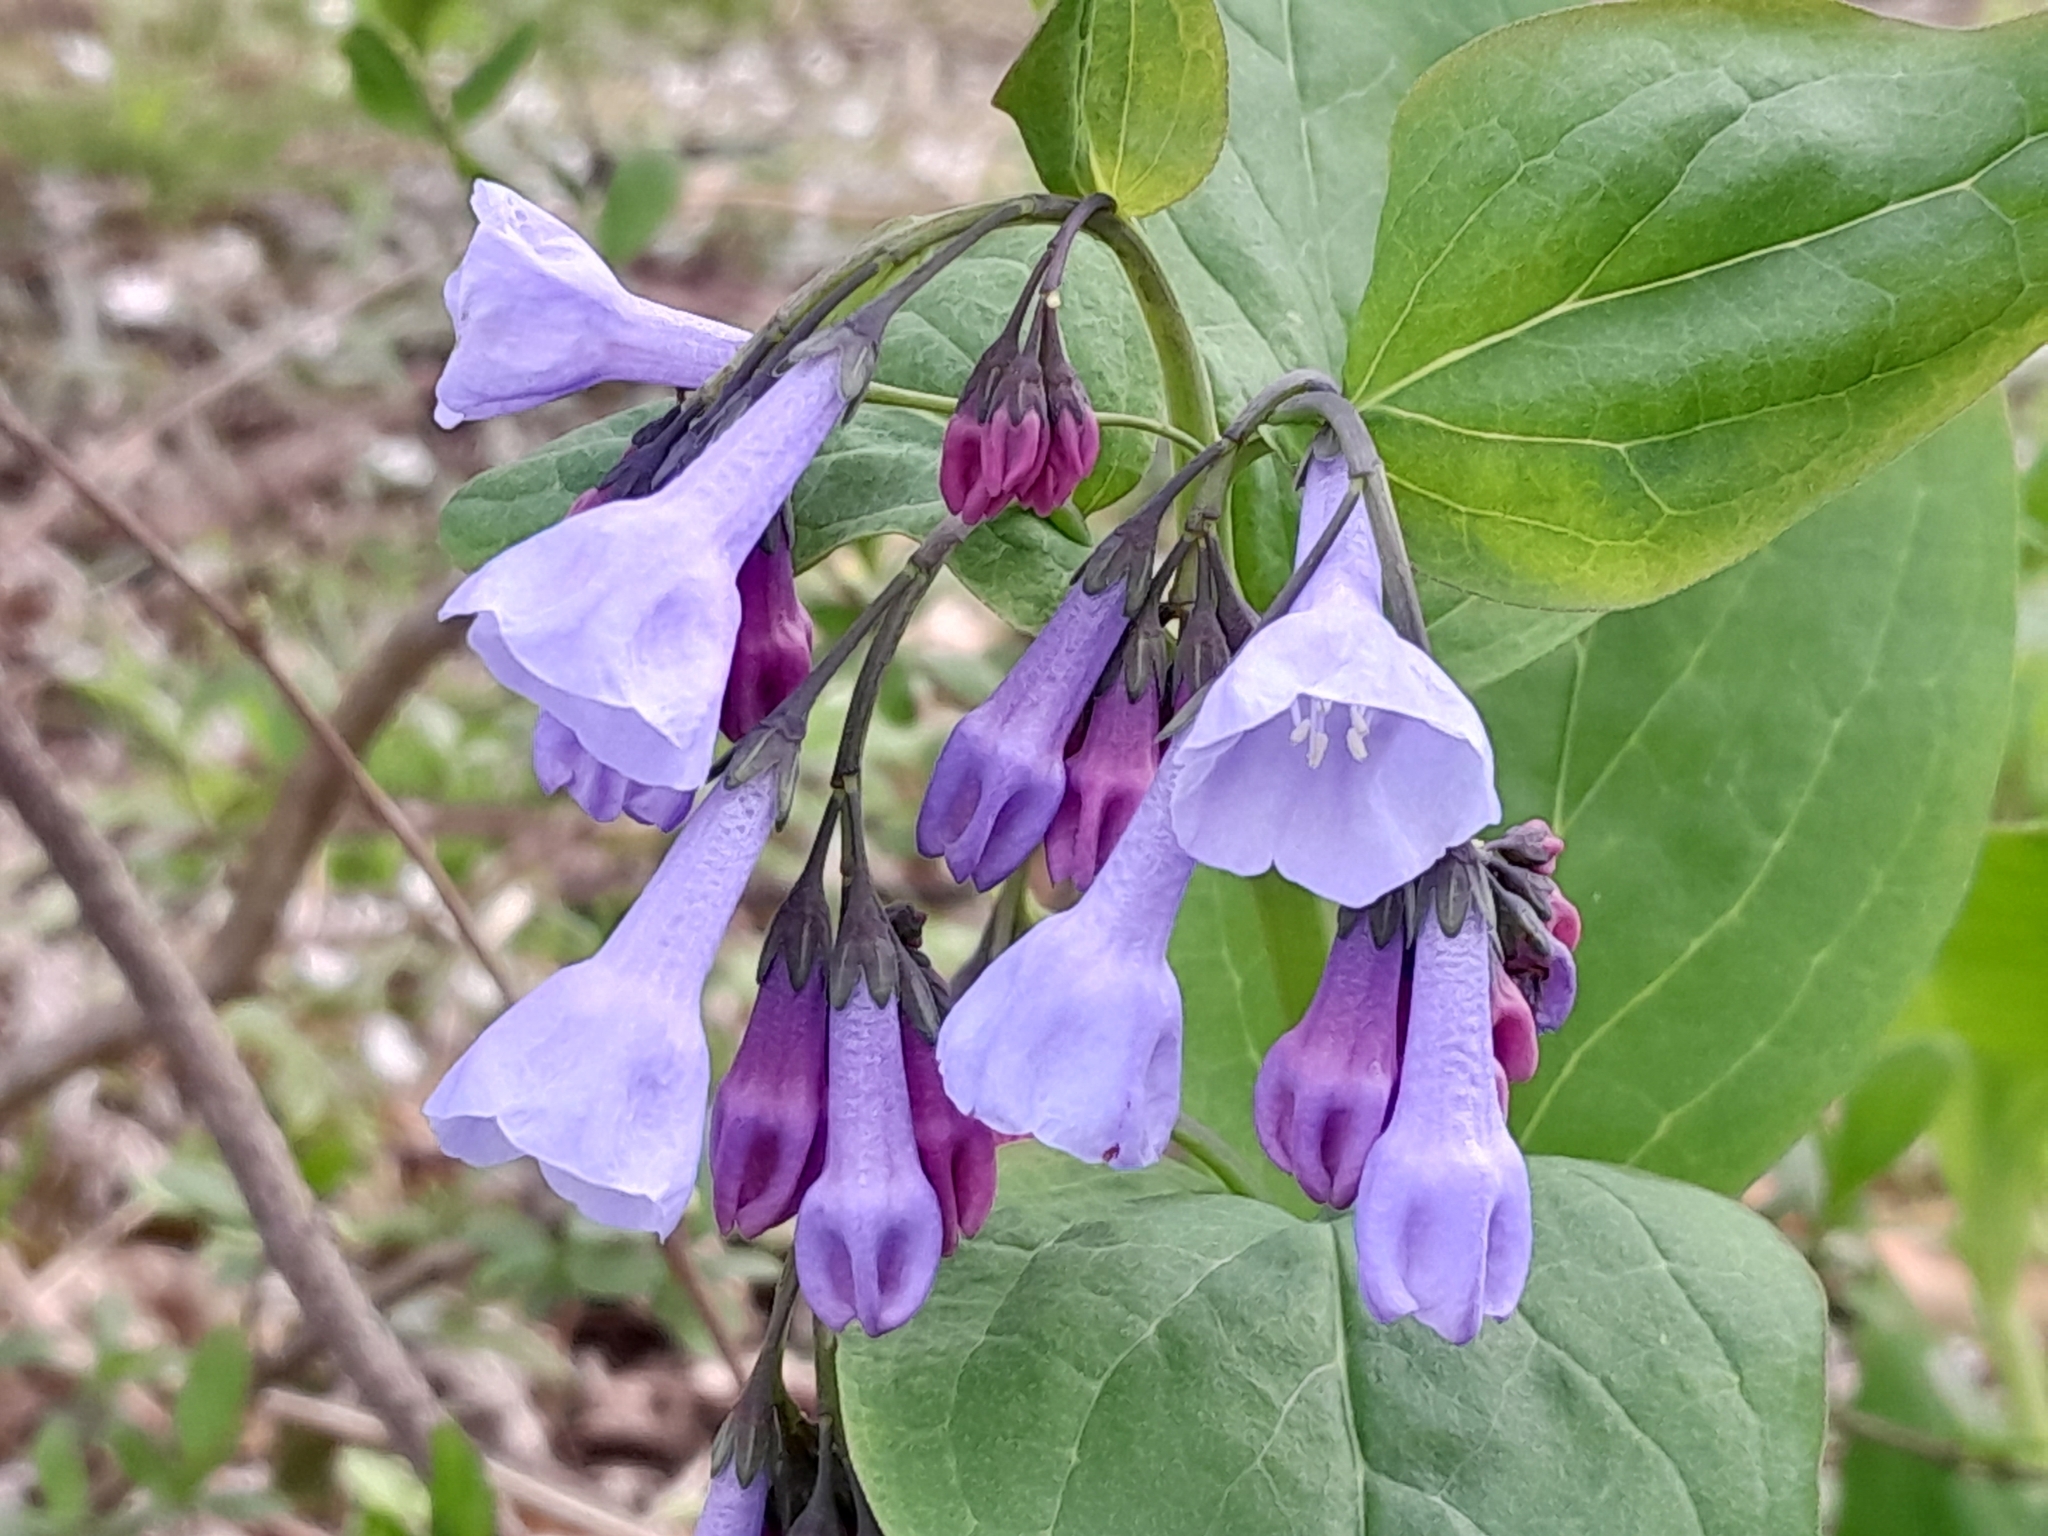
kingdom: Plantae
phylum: Tracheophyta
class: Magnoliopsida
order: Boraginales
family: Boraginaceae
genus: Mertensia
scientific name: Mertensia virginica
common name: Virginia bluebells
